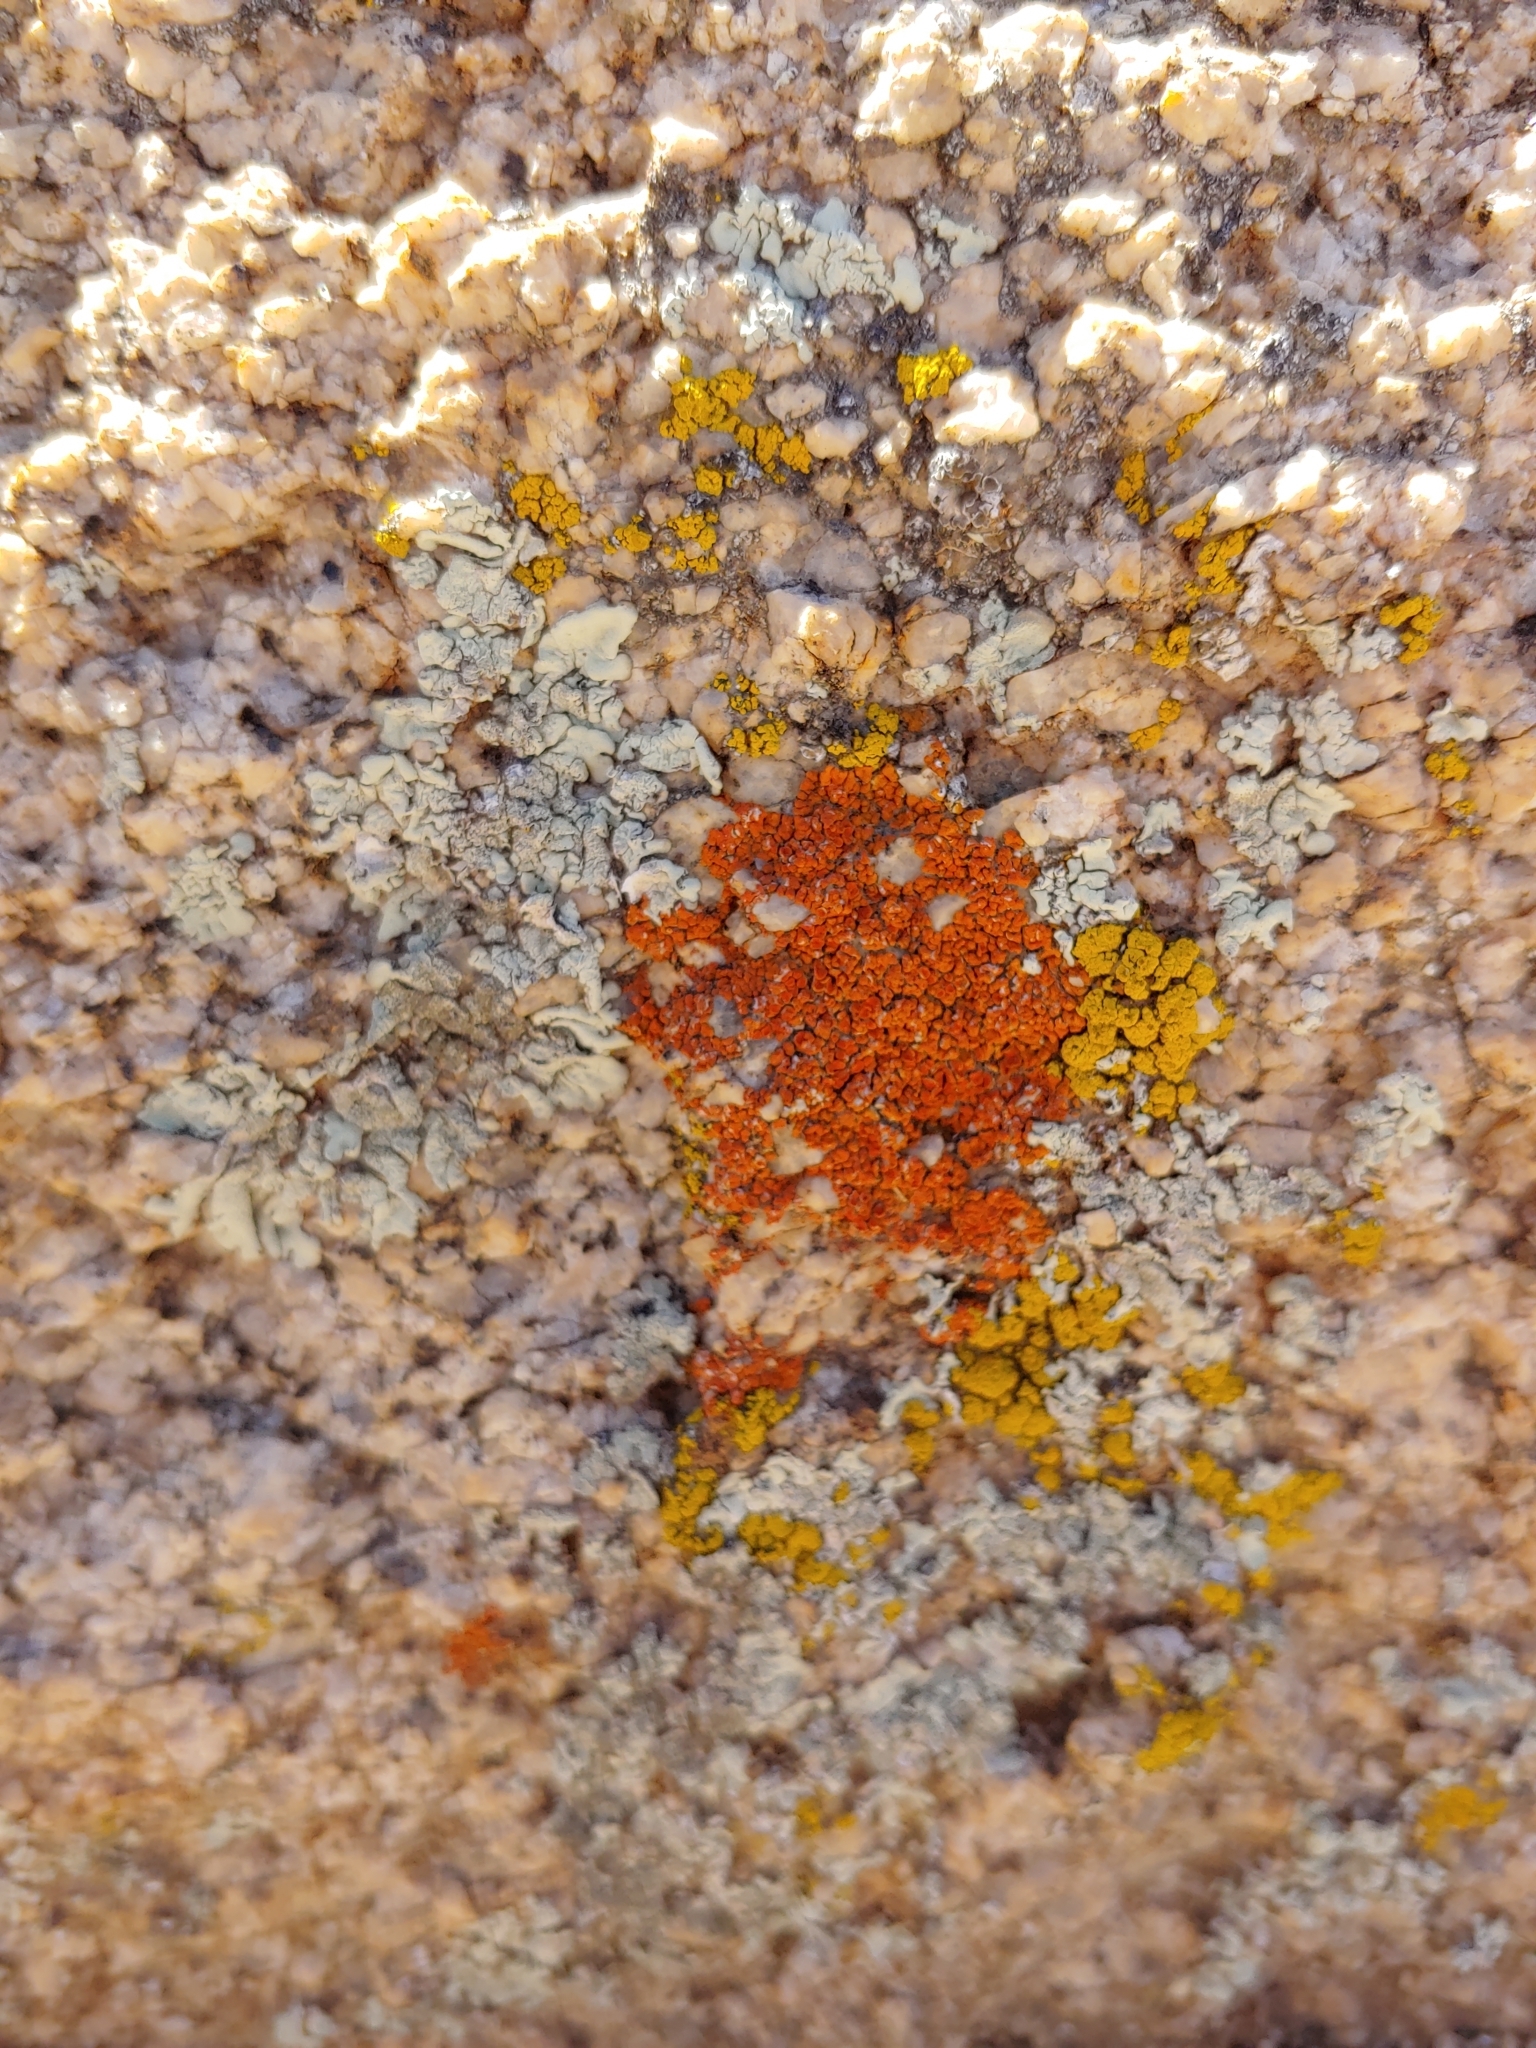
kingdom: Fungi
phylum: Ascomycota
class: Lecanoromycetes
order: Teloschistales
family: Teloschistaceae
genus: Xanthoria
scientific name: Xanthoria elegans
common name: Elegant sunburst lichen
